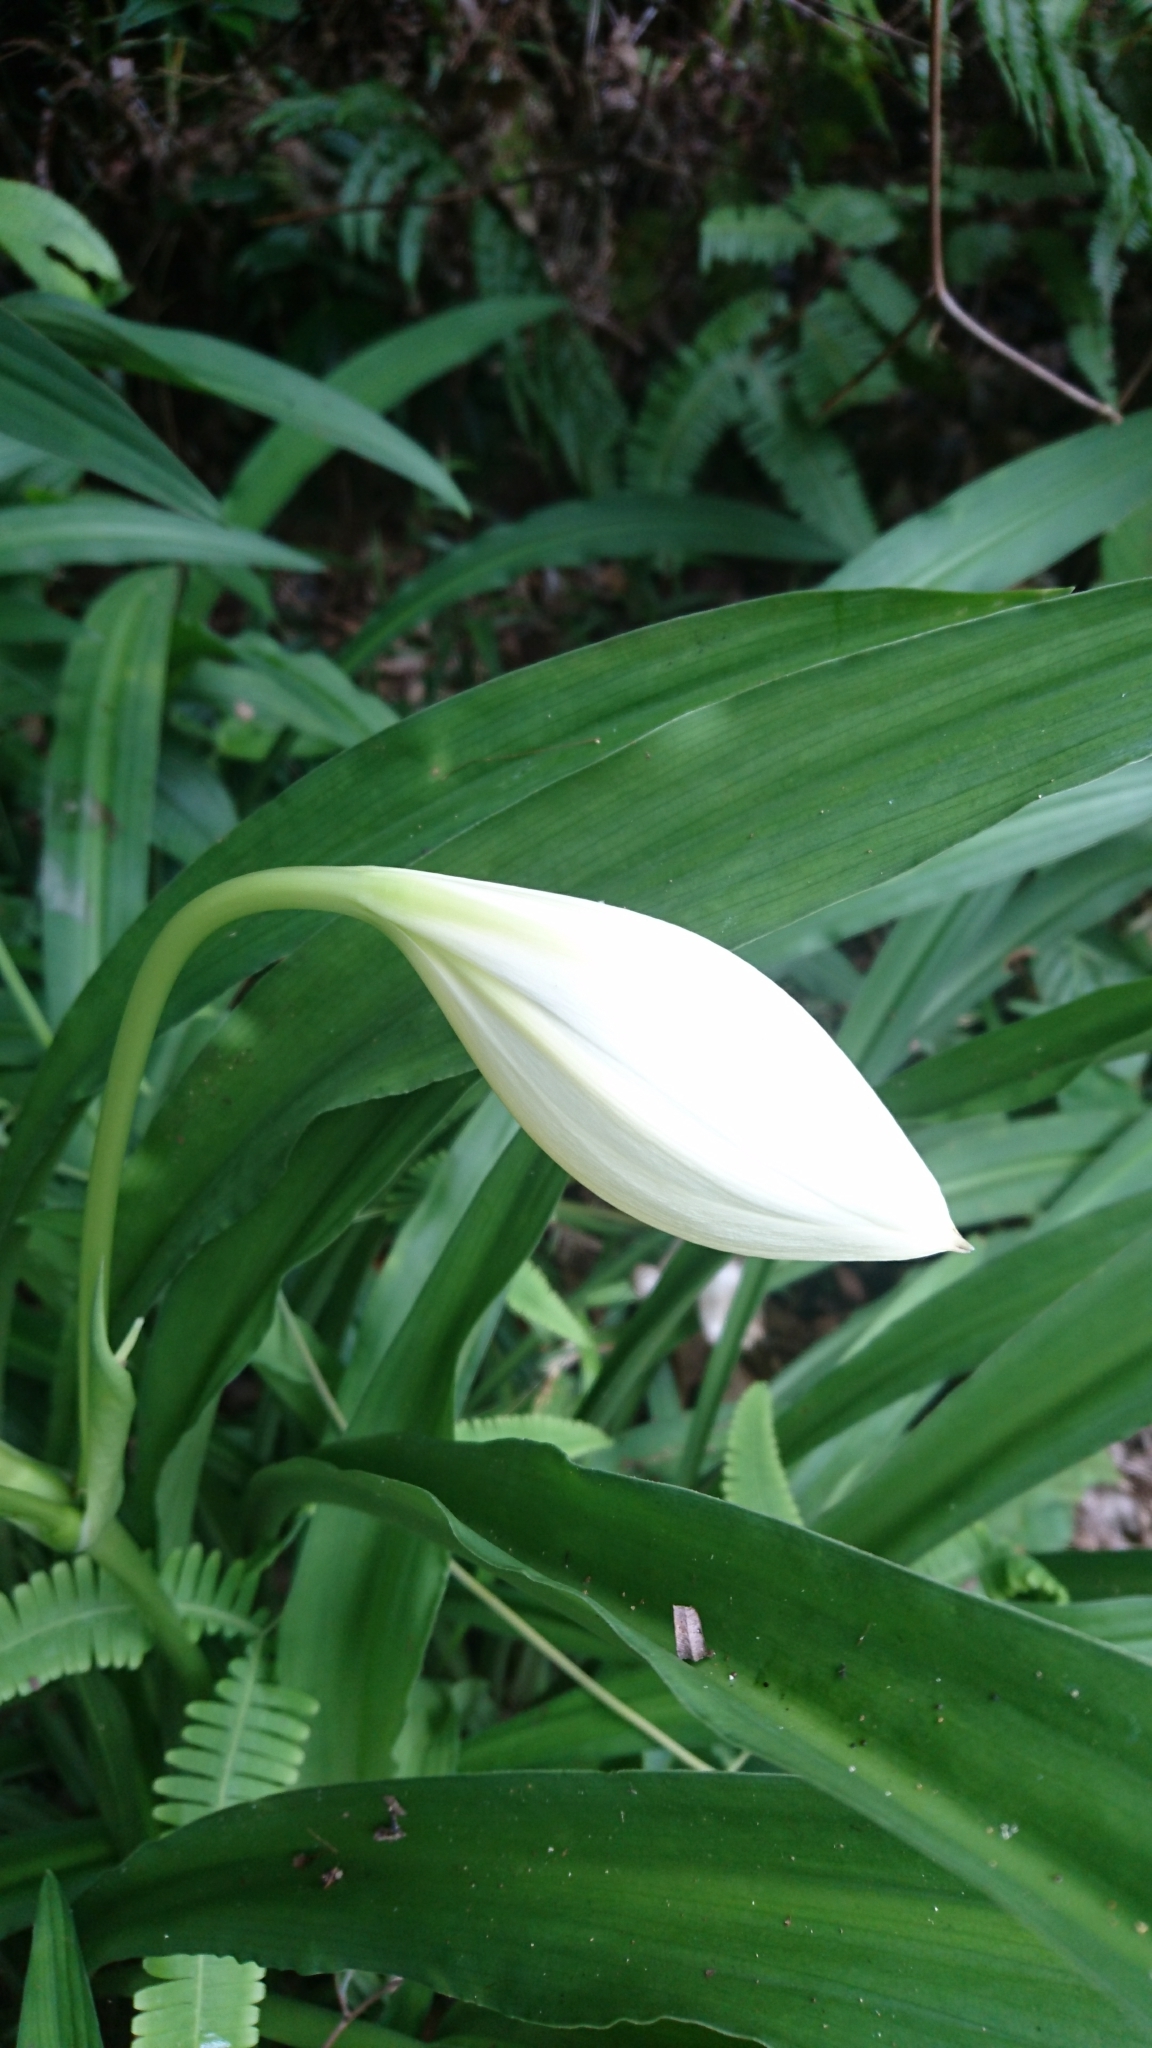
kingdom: Plantae
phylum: Tracheophyta
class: Liliopsida
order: Asparagales
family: Amaryllidaceae
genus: Crinum
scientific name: Crinum
